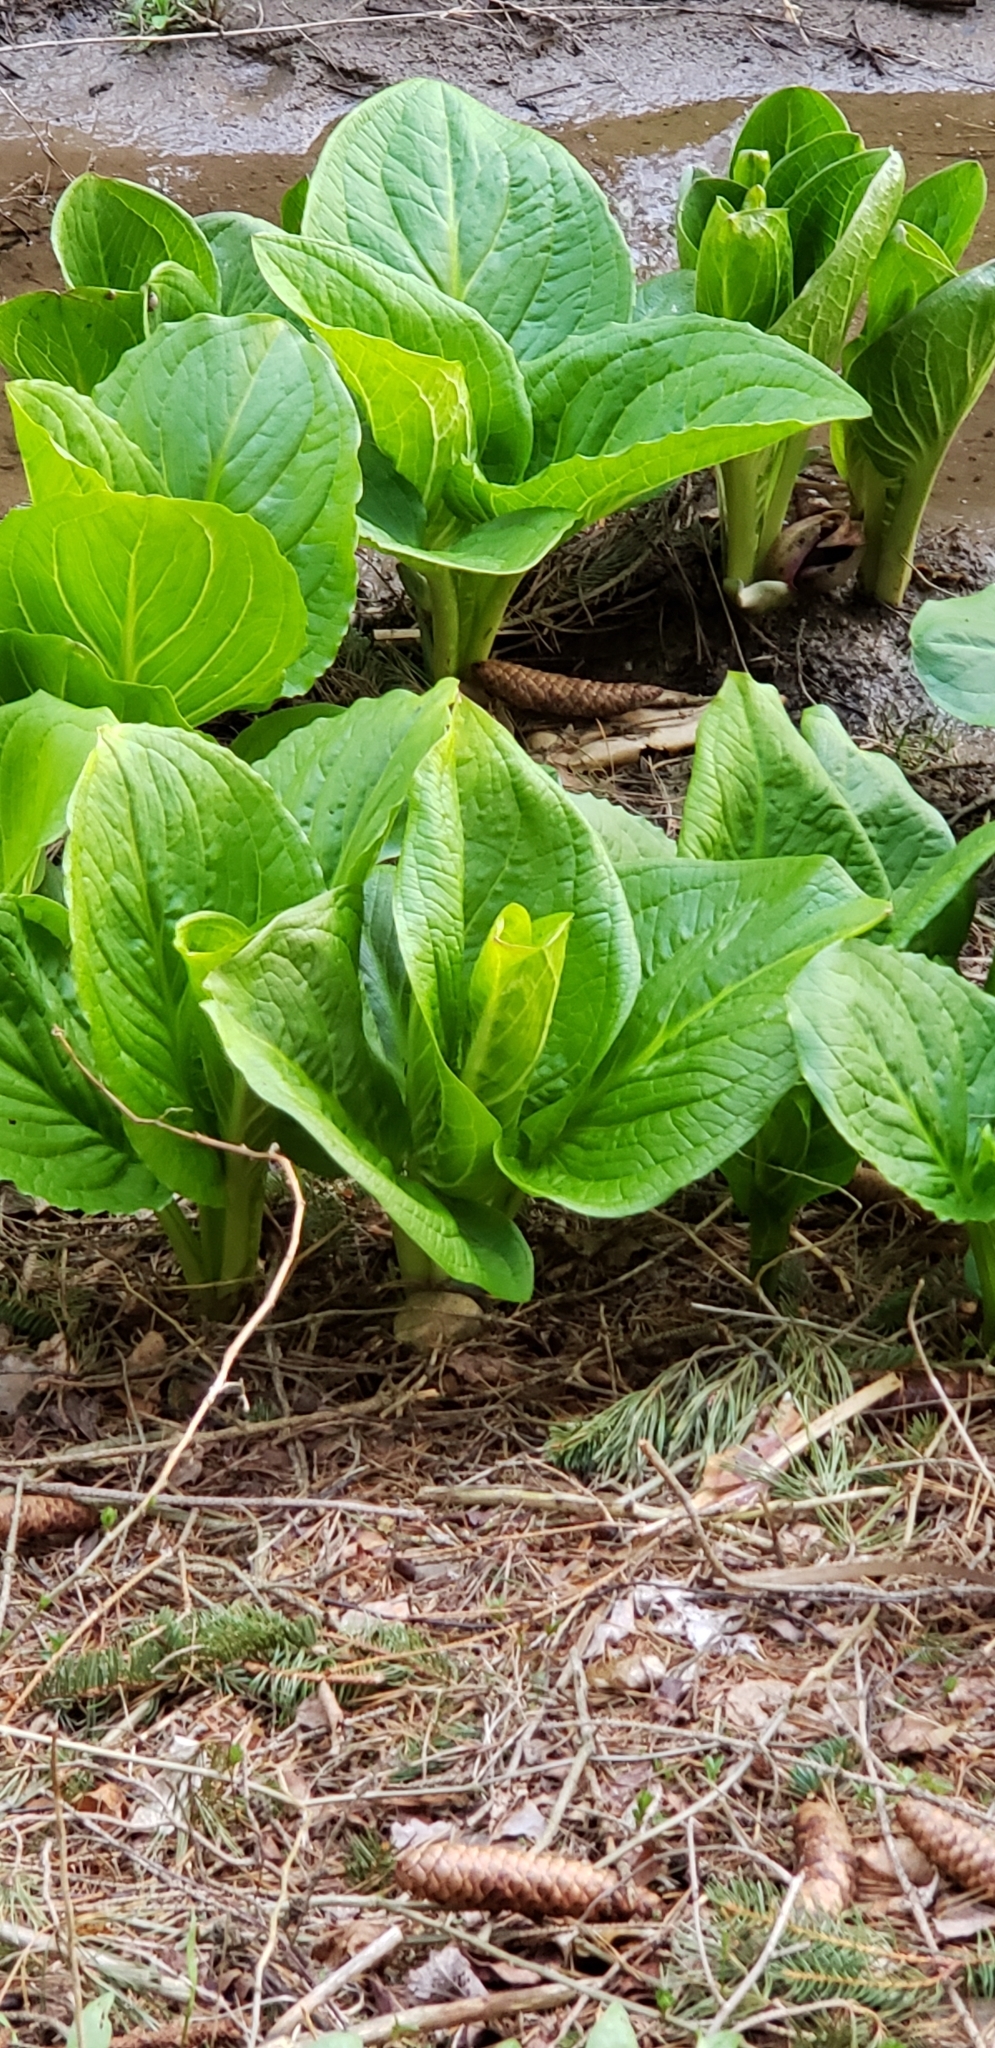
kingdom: Plantae
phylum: Tracheophyta
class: Liliopsida
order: Alismatales
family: Araceae
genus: Symplocarpus
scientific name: Symplocarpus foetidus
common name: Eastern skunk cabbage
